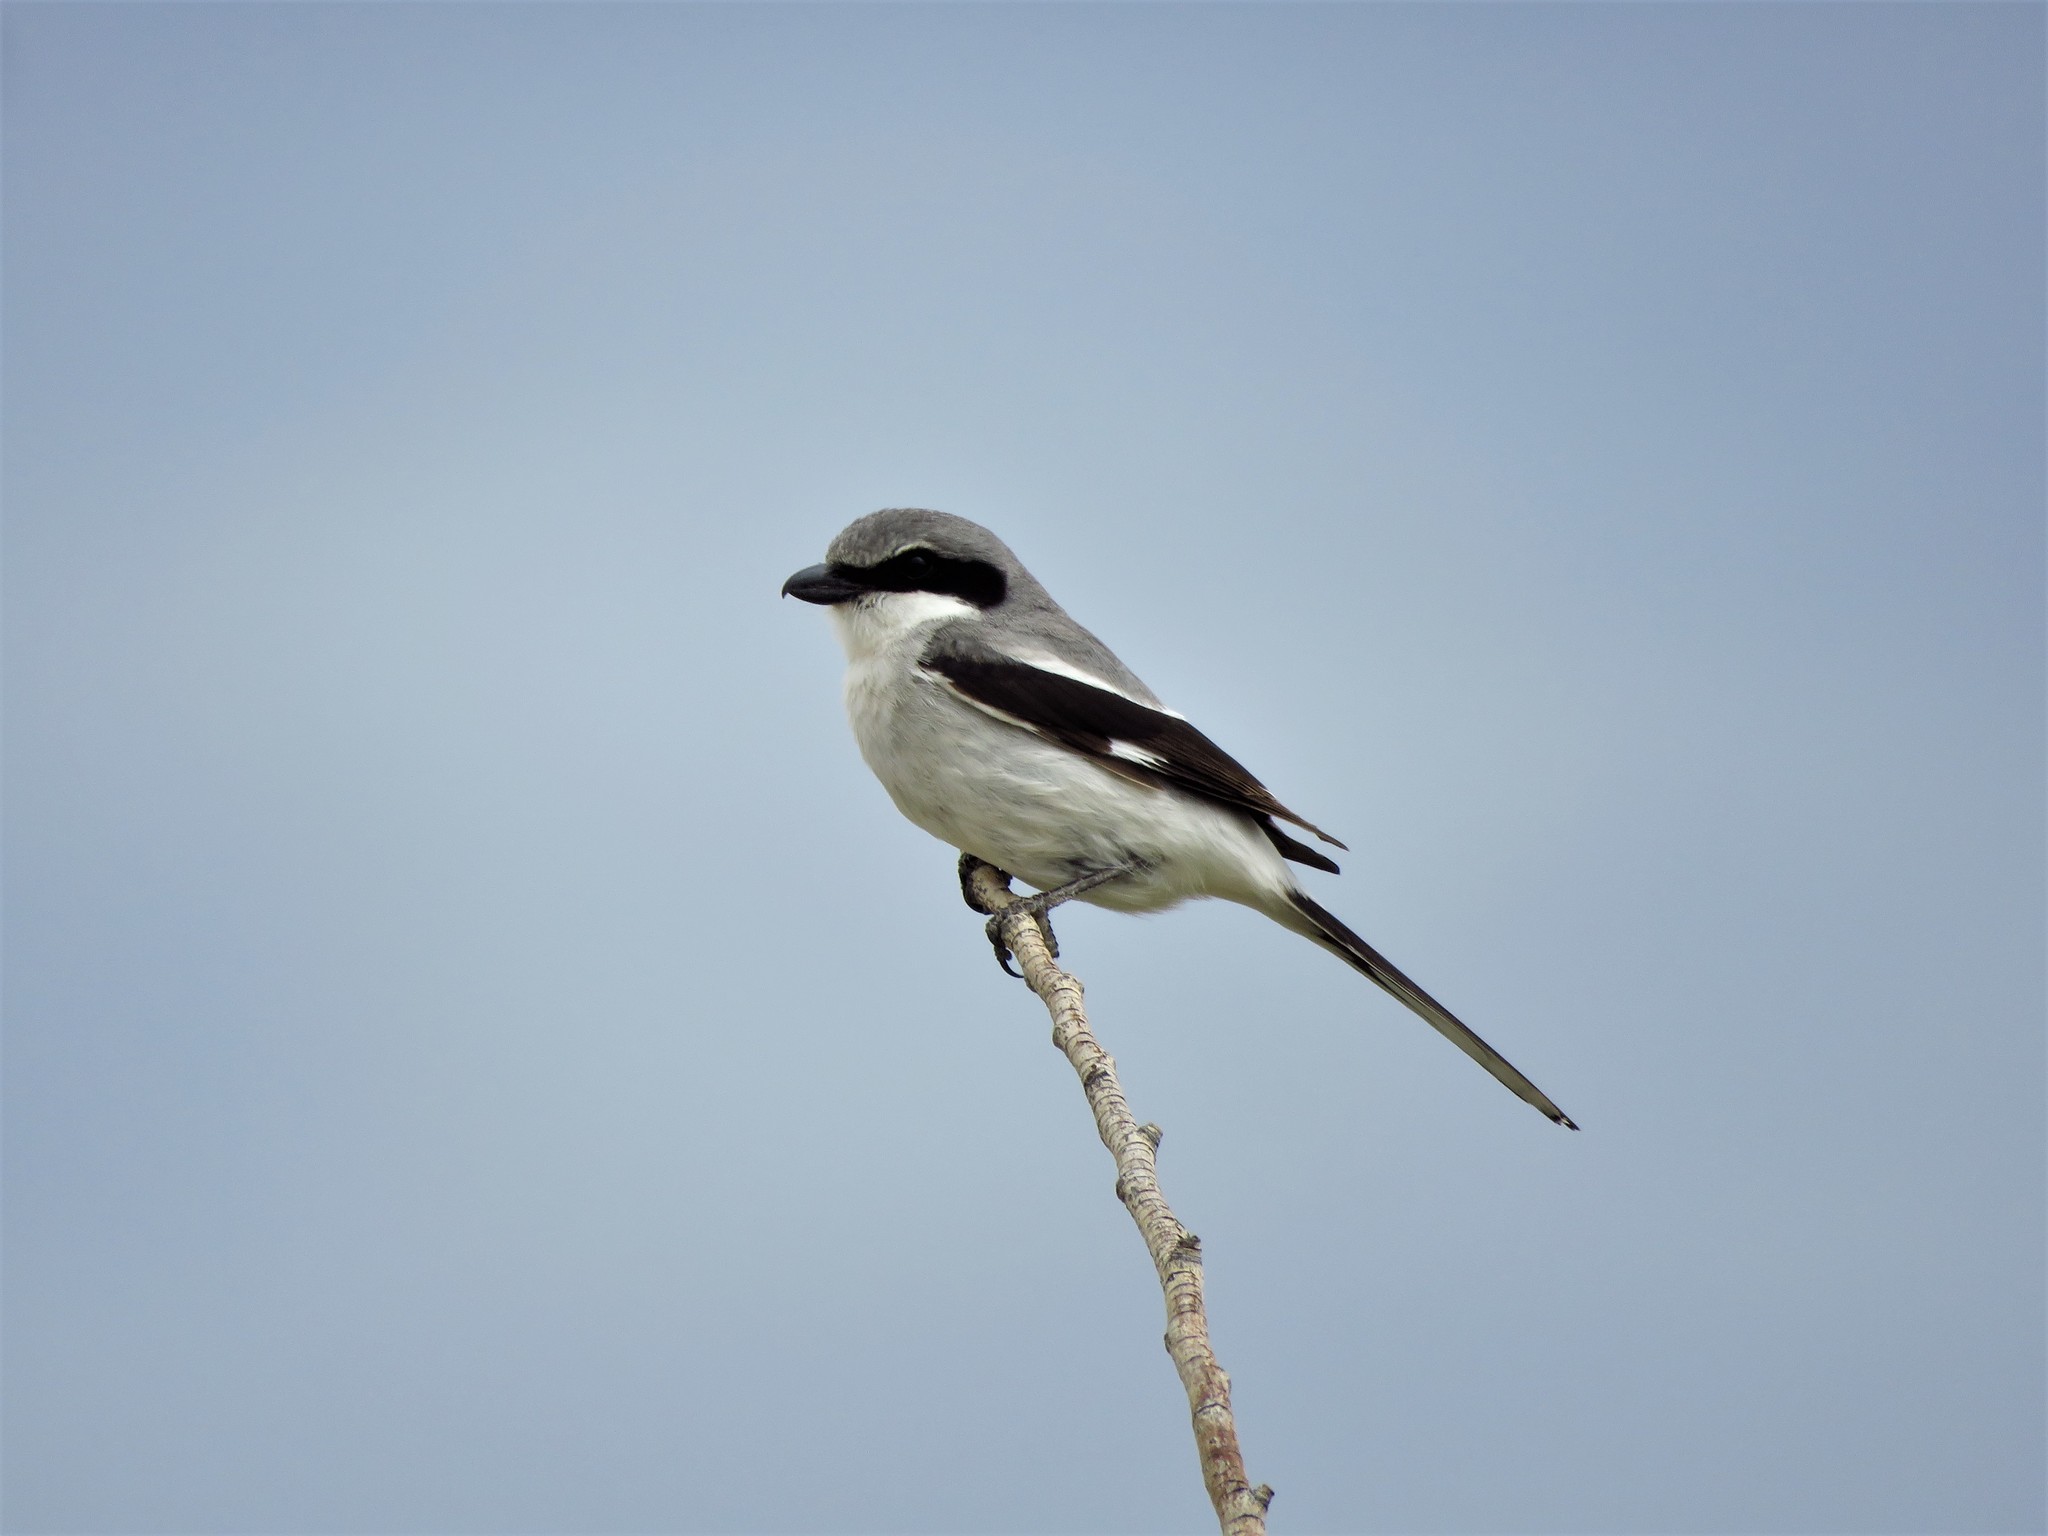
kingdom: Animalia
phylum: Chordata
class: Aves
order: Passeriformes
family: Laniidae
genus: Lanius
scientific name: Lanius ludovicianus
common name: Loggerhead shrike
